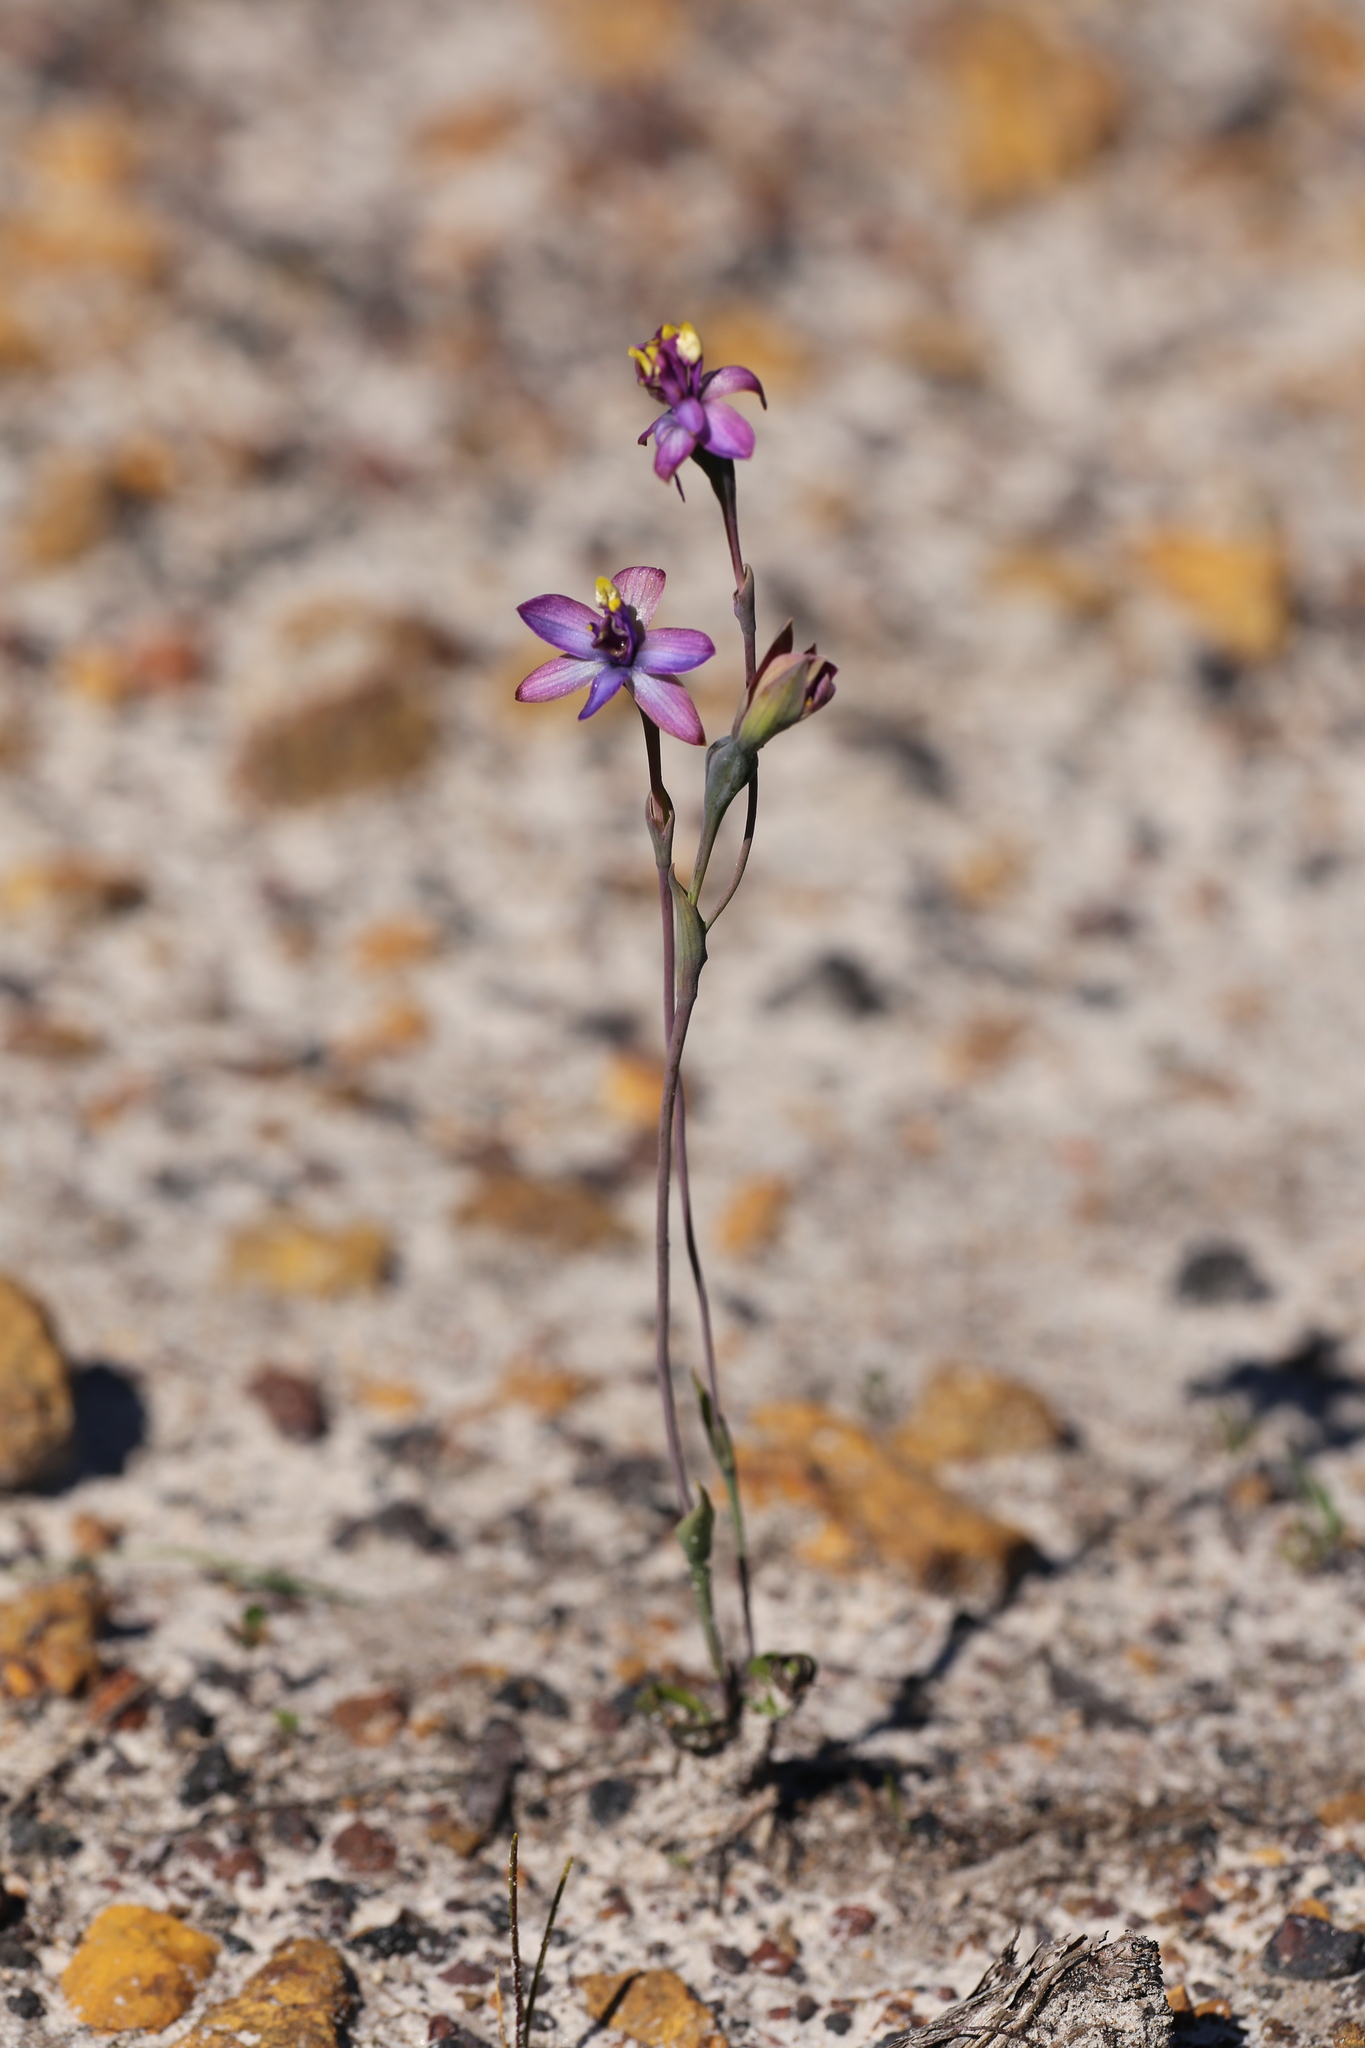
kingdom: Plantae
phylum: Tracheophyta
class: Liliopsida
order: Asparagales
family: Orchidaceae
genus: Thelymitra
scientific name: Thelymitra uliginosa
